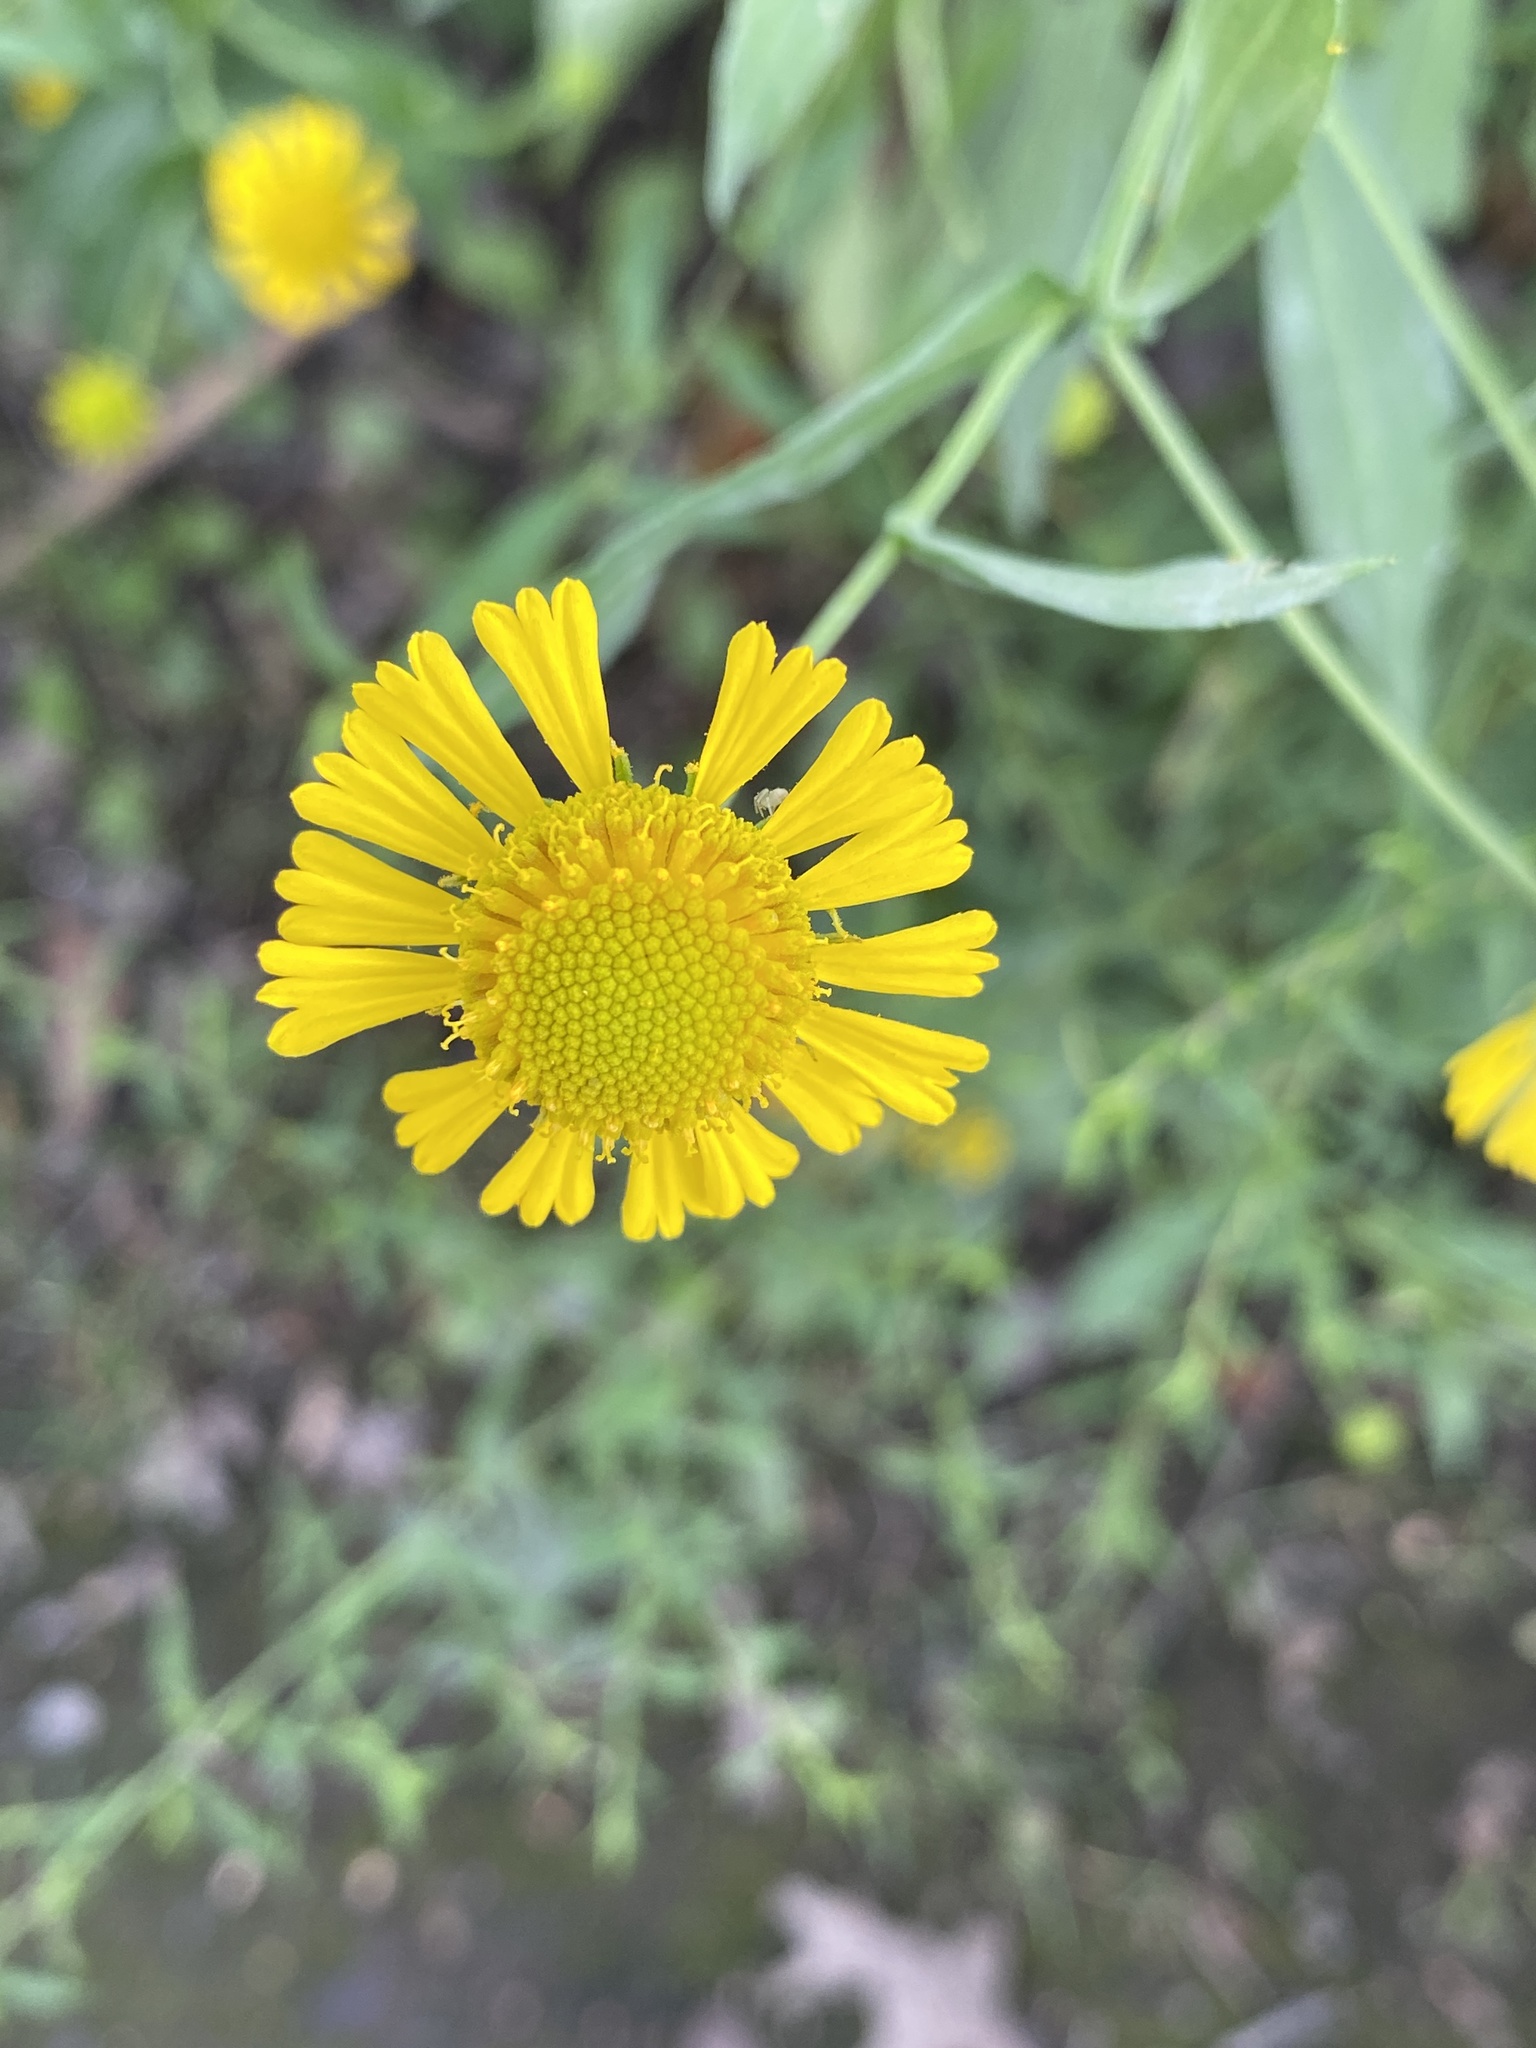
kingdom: Plantae
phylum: Tracheophyta
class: Magnoliopsida
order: Asterales
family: Asteraceae
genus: Helenium
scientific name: Helenium autumnale
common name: Sneezeweed
